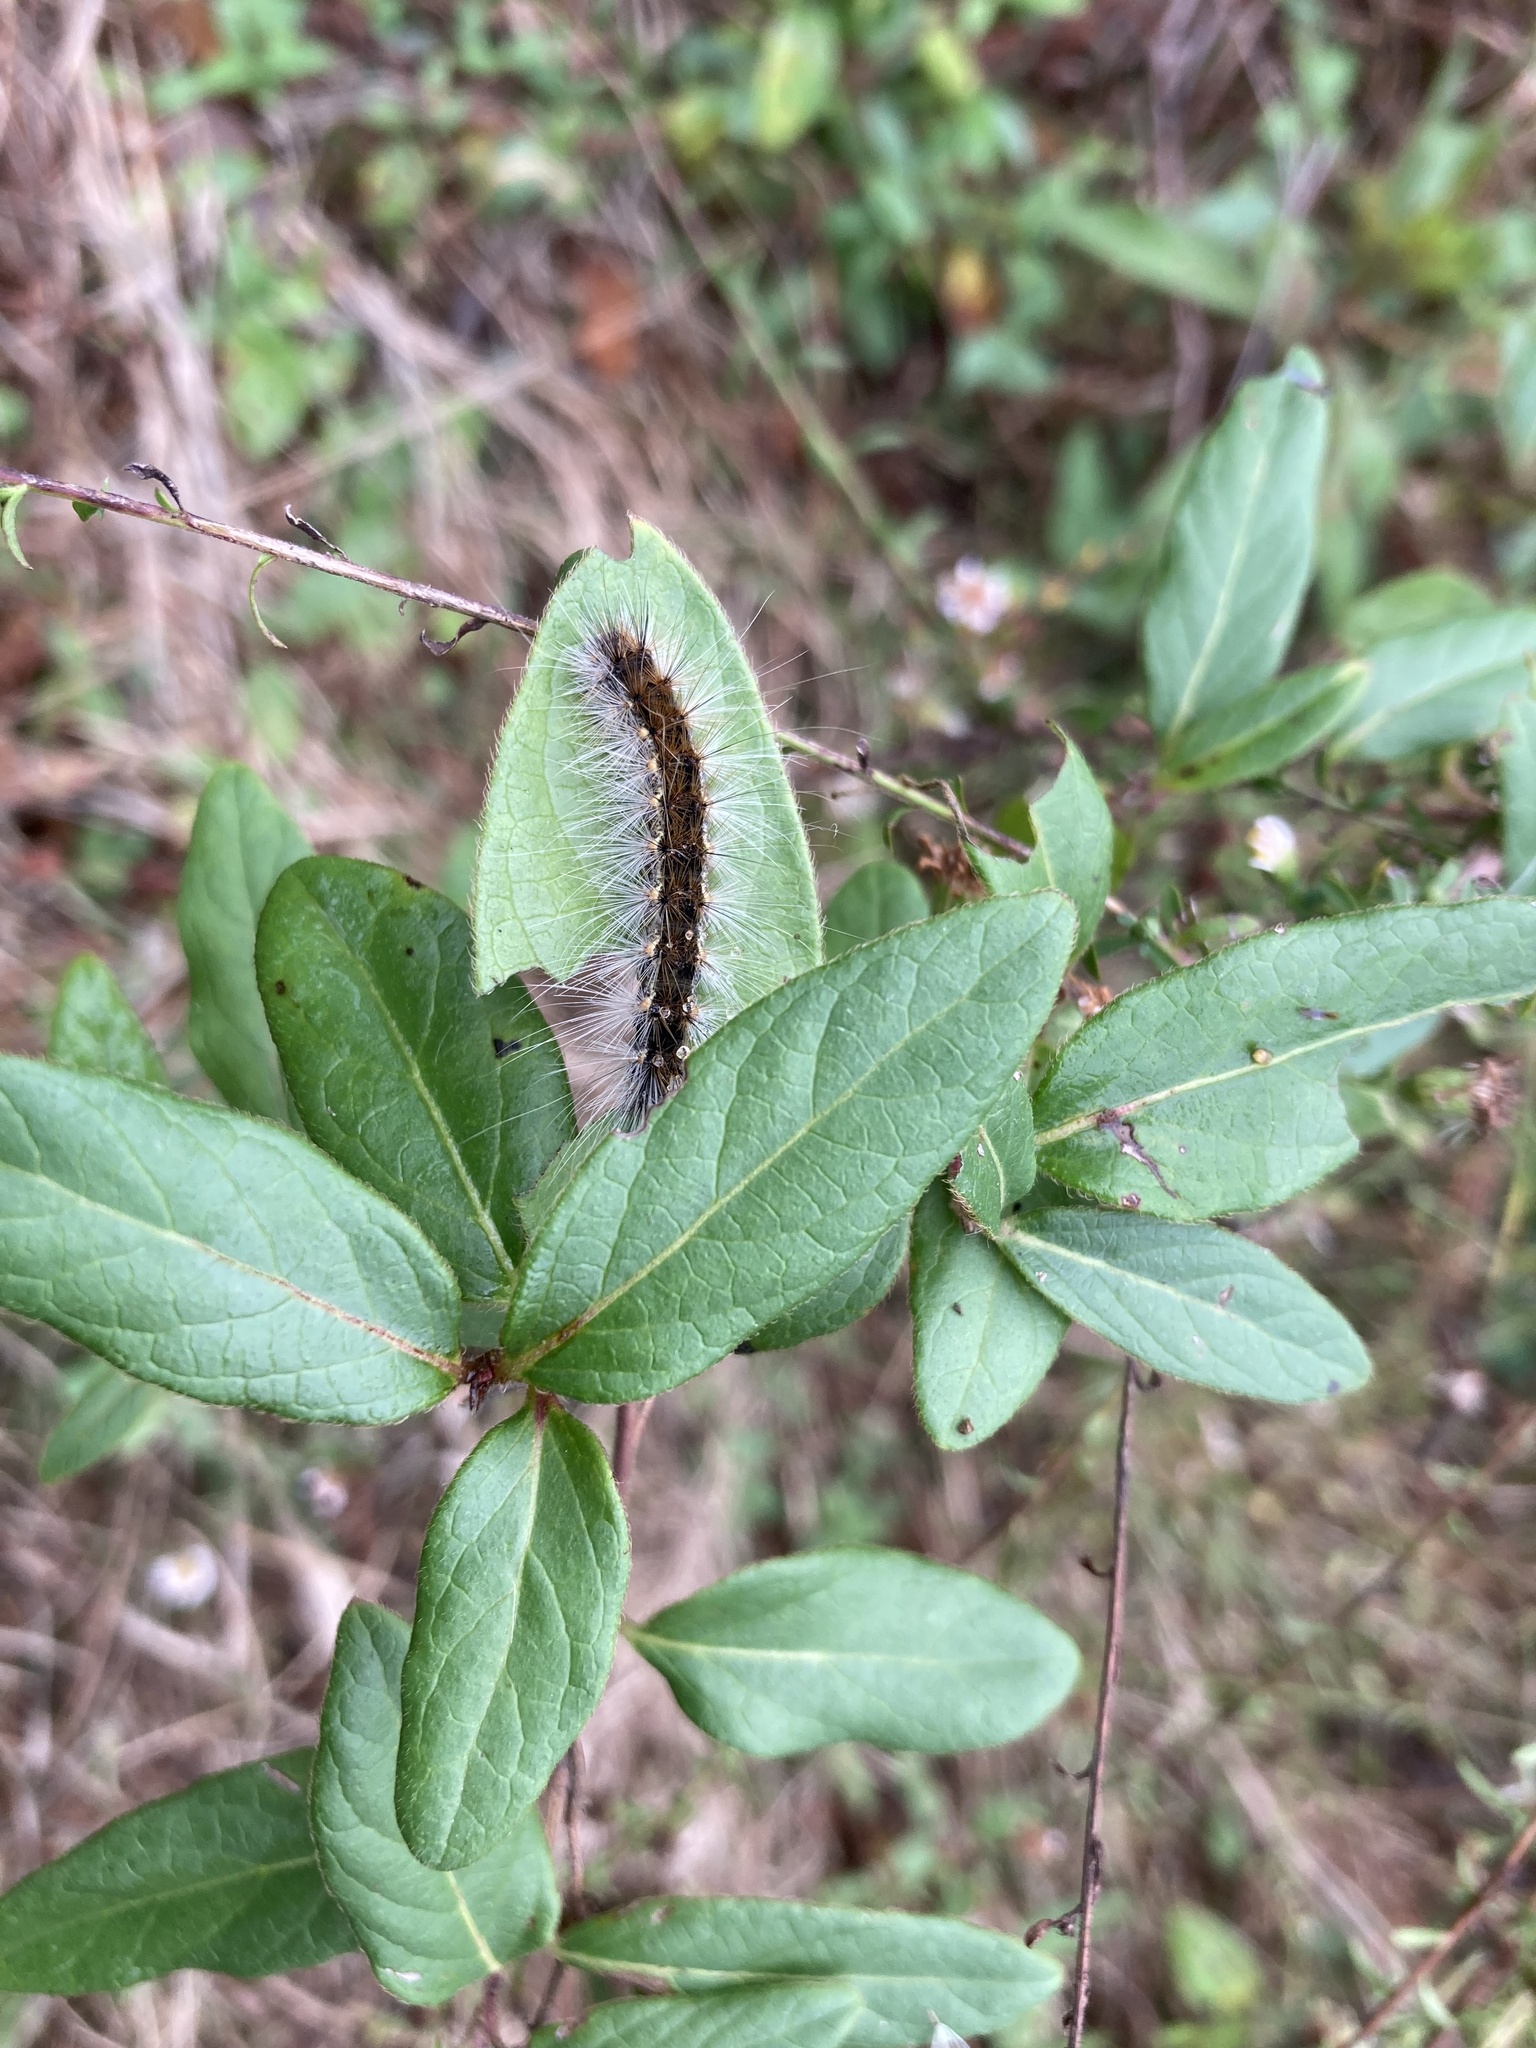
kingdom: Animalia
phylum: Arthropoda
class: Insecta
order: Lepidoptera
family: Erebidae
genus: Hyphantria
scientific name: Hyphantria cunea
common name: American white moth
